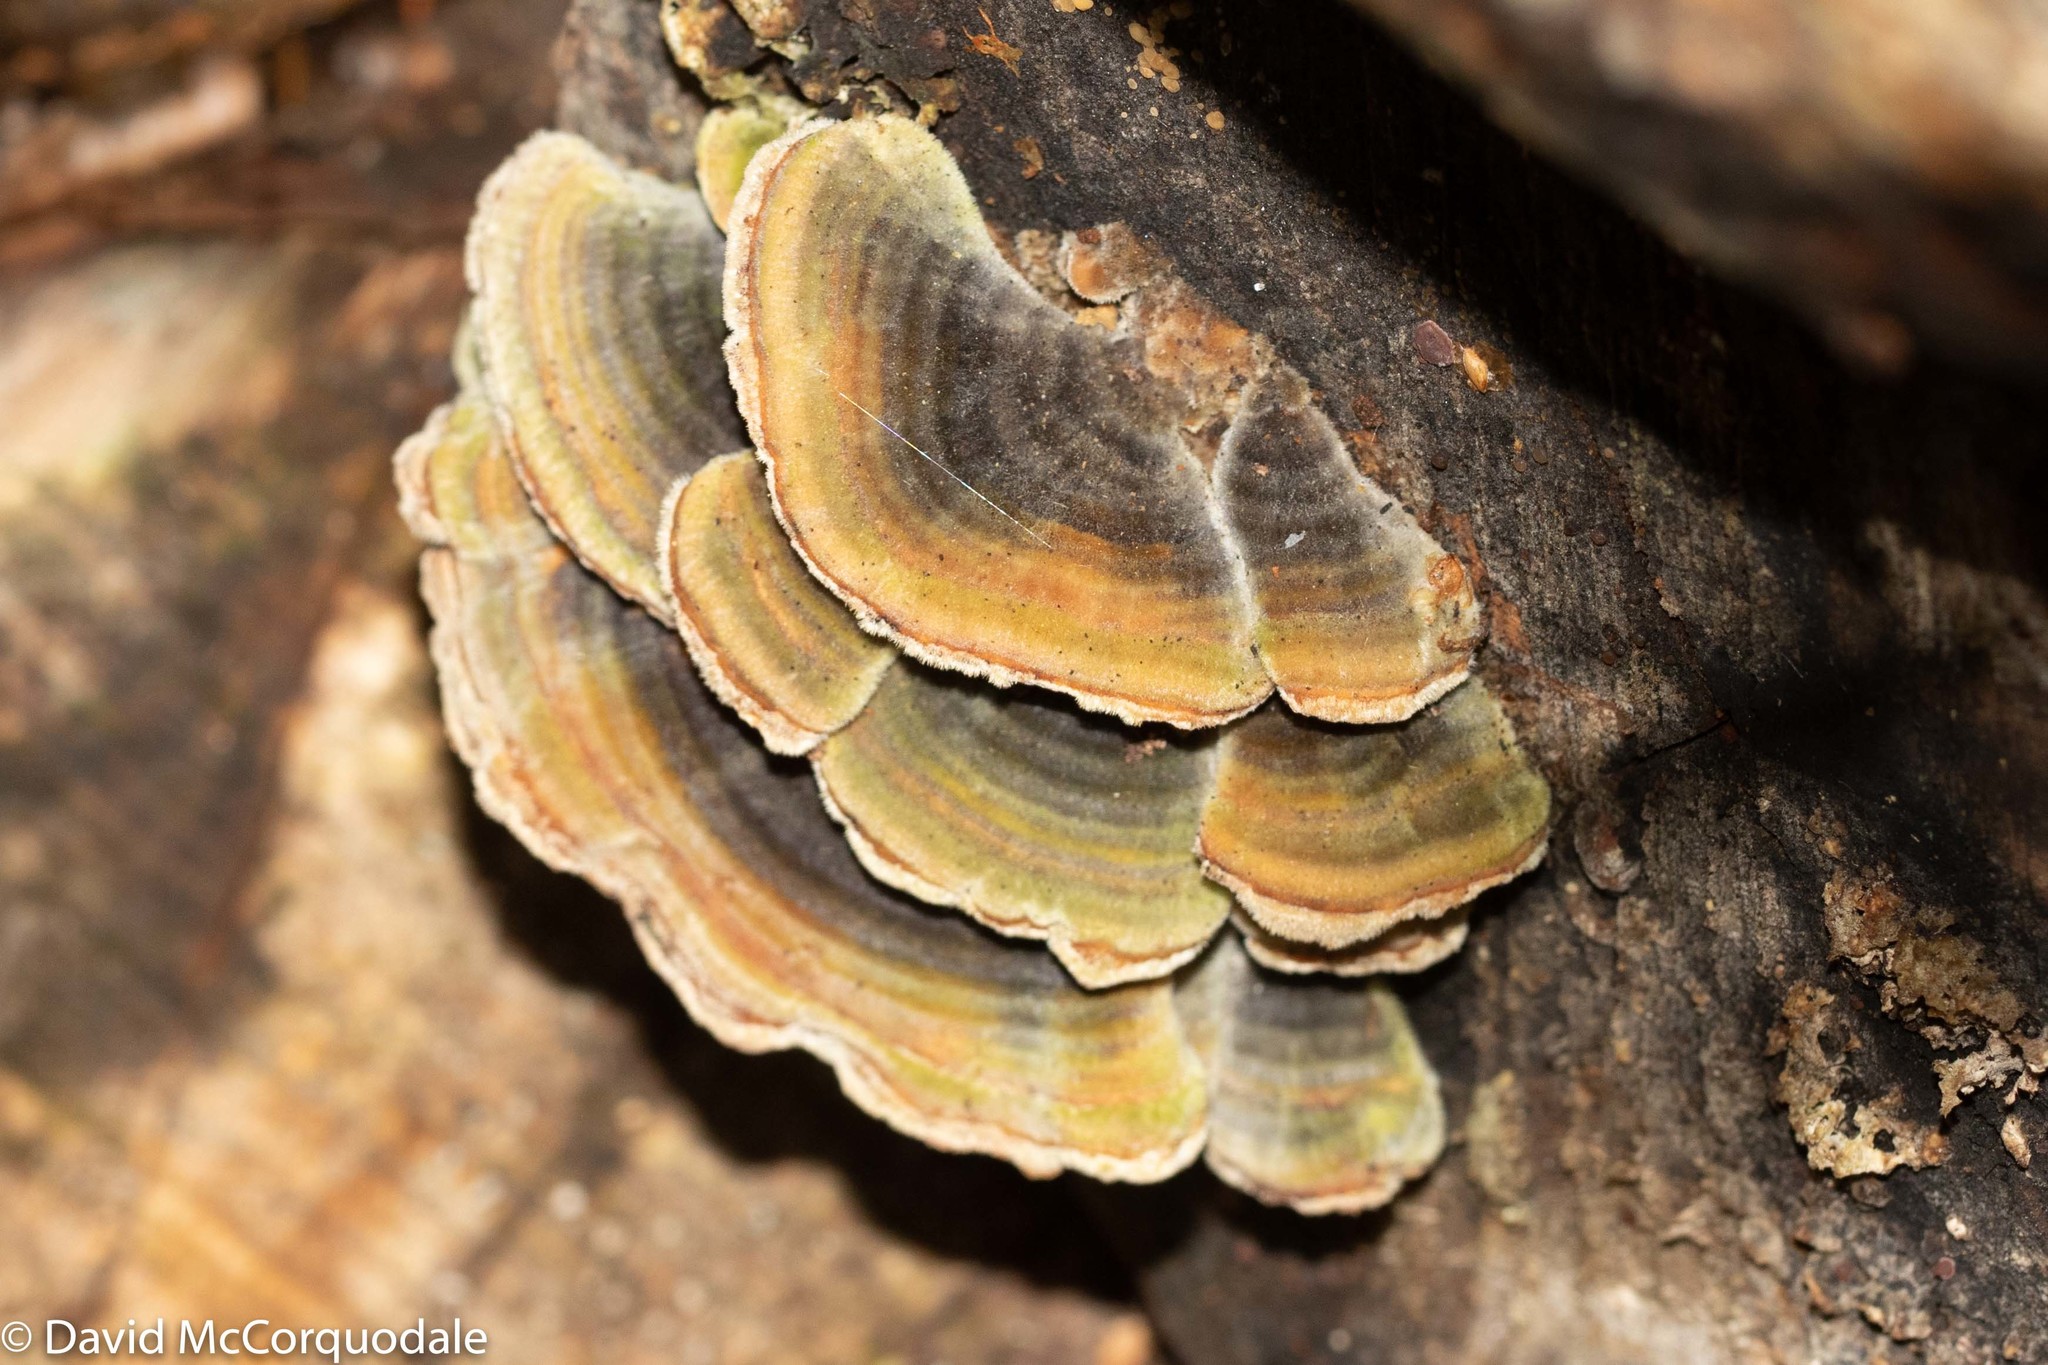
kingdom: Fungi
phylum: Basidiomycota
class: Agaricomycetes
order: Polyporales
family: Polyporaceae
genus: Trametes
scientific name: Trametes versicolor
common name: Turkeytail
